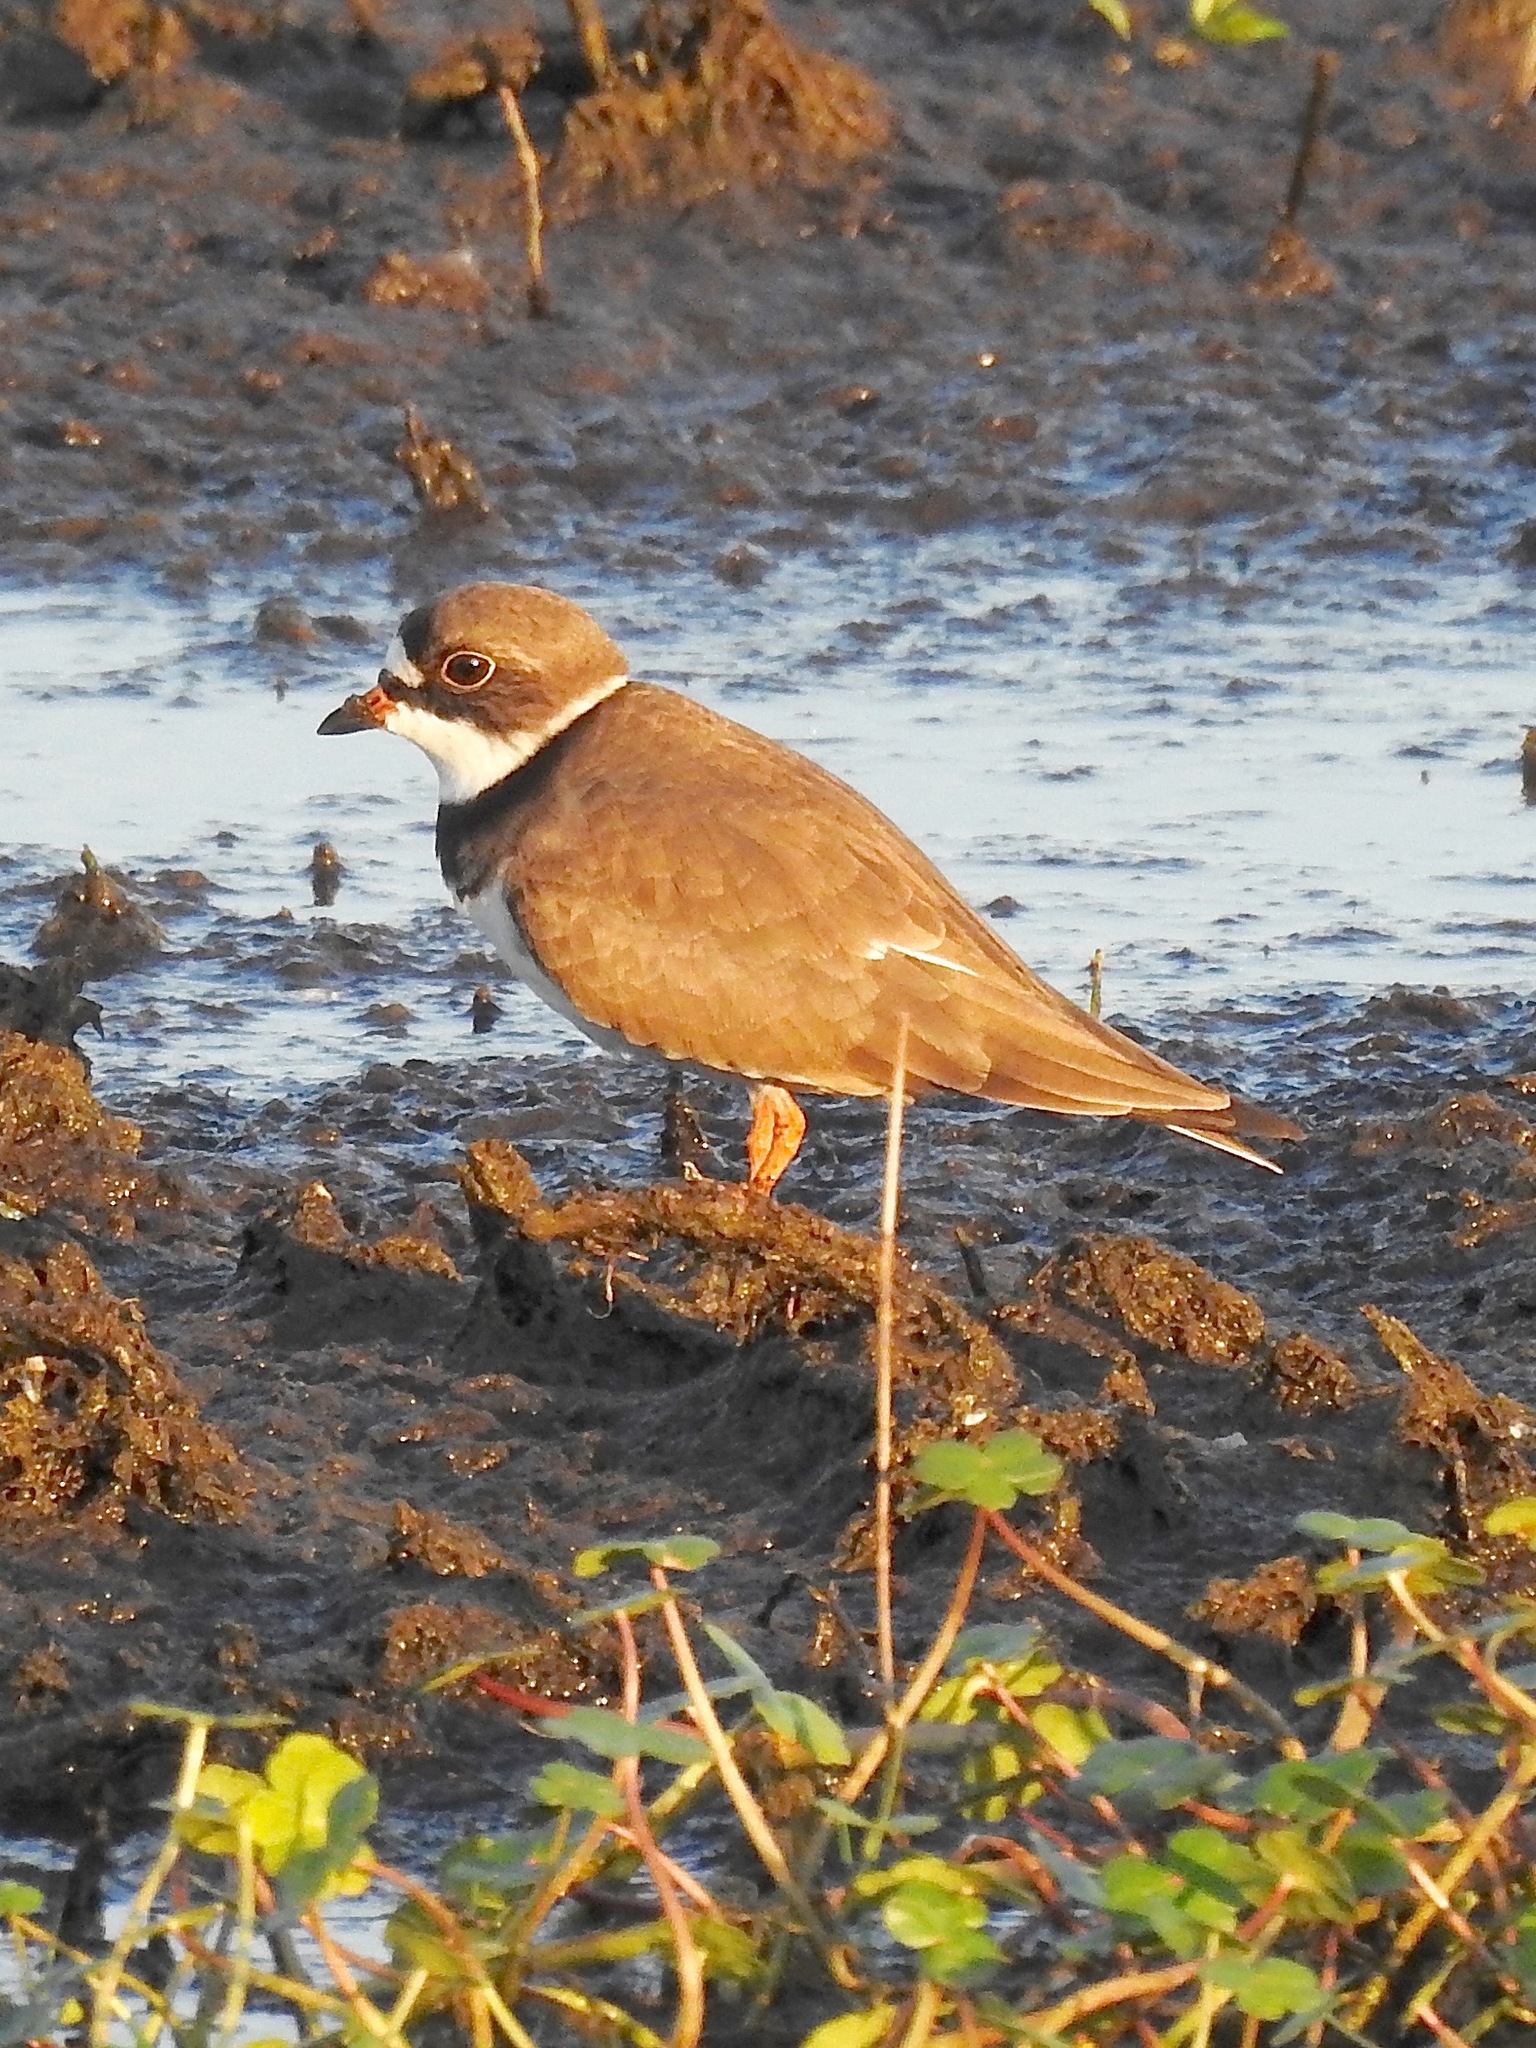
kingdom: Animalia
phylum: Chordata
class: Aves
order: Charadriiformes
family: Charadriidae
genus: Charadrius
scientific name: Charadrius semipalmatus
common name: Semipalmated plover
